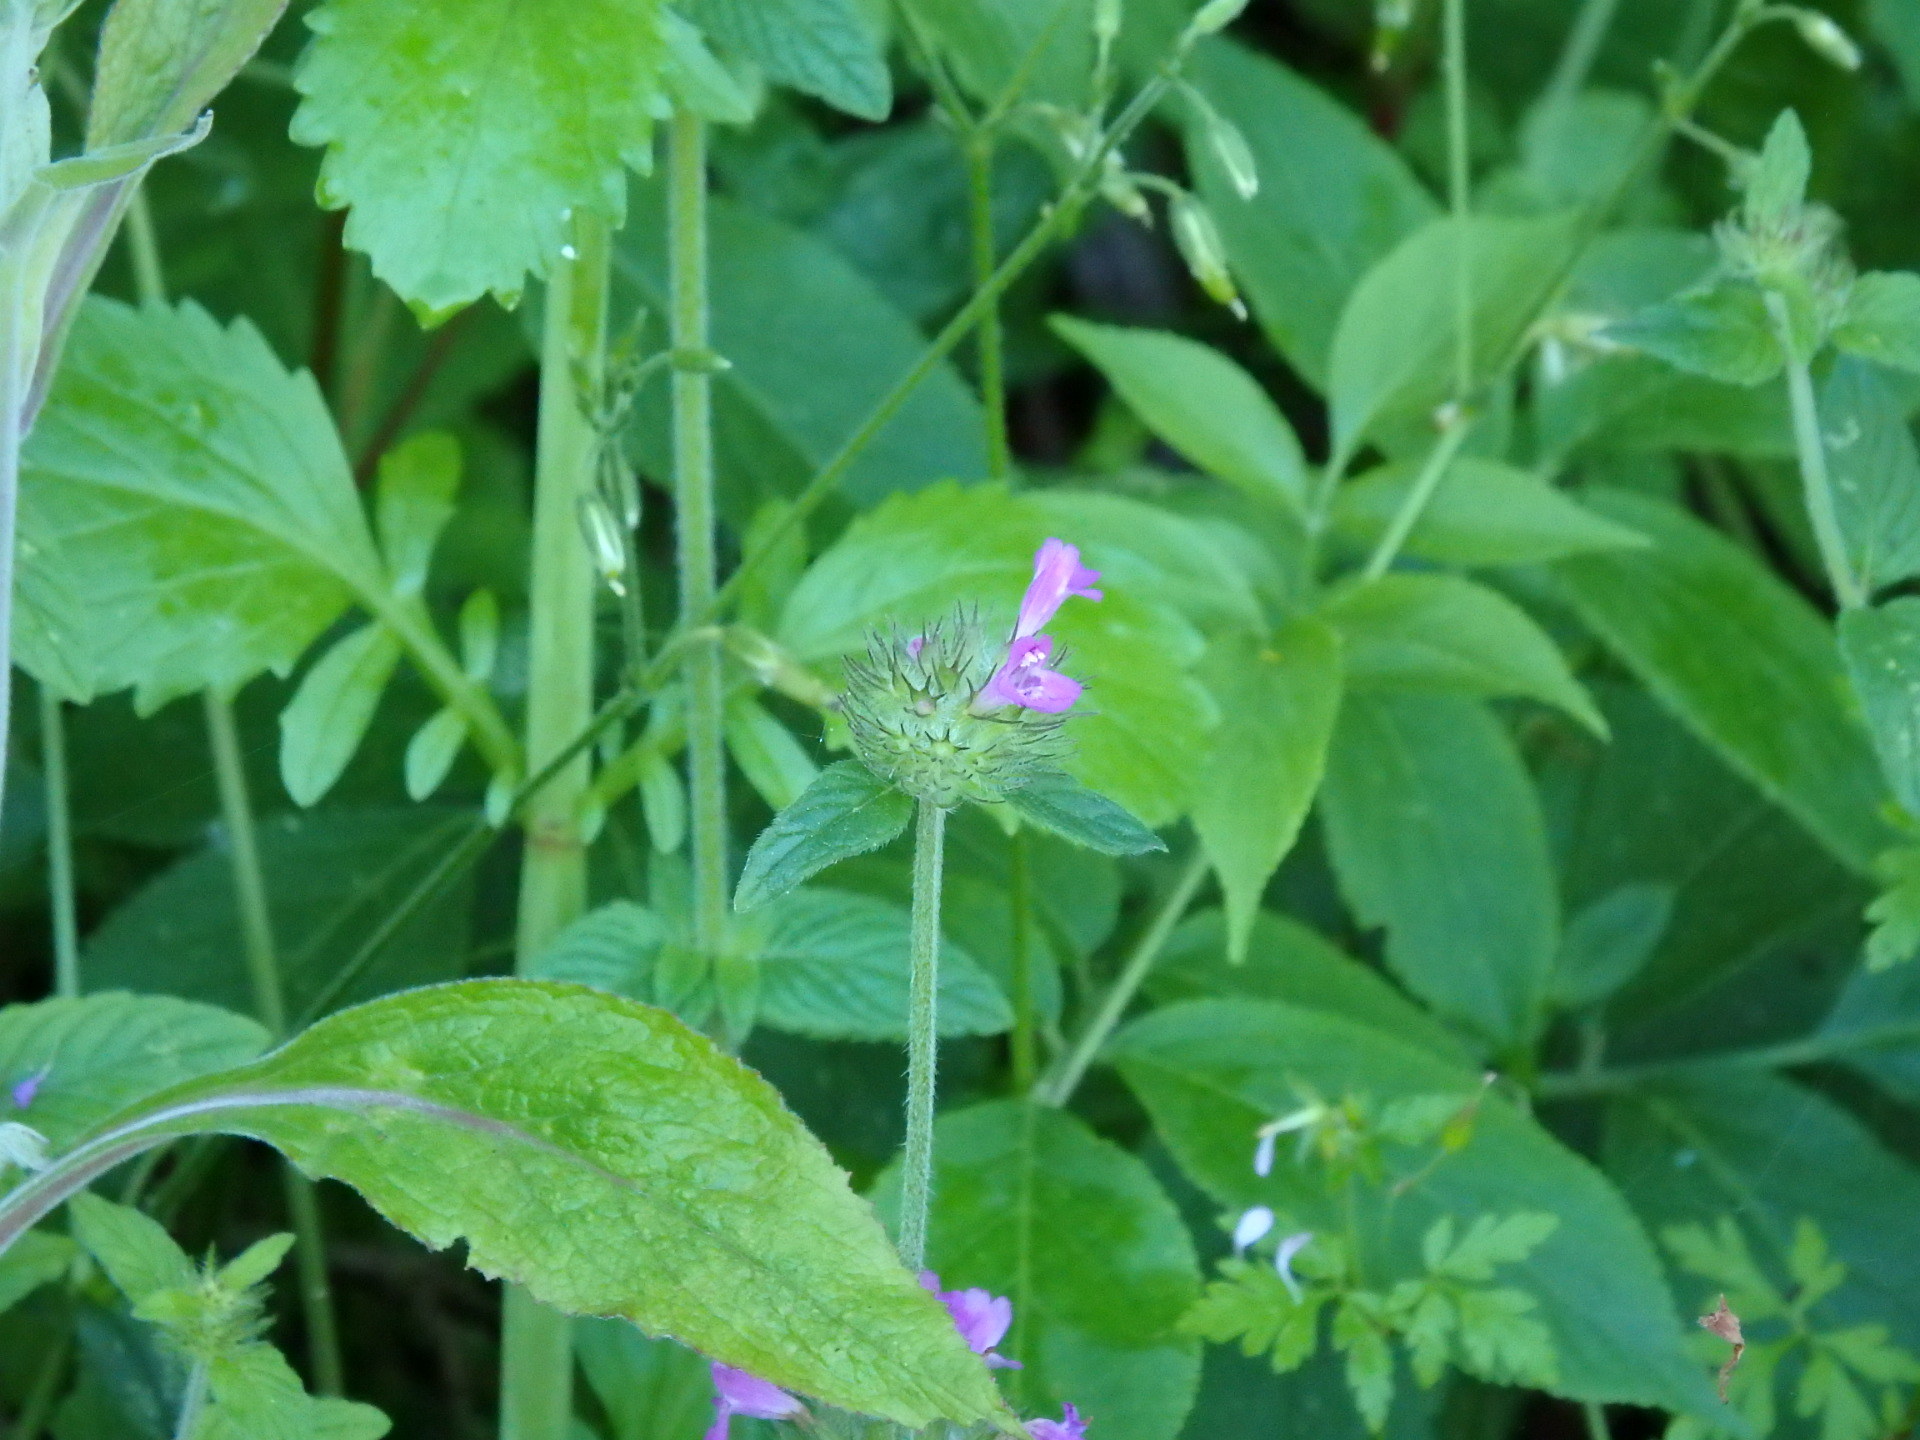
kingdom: Plantae
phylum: Tracheophyta
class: Magnoliopsida
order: Lamiales
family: Lamiaceae
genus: Clinopodium
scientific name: Clinopodium vulgare
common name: Wild basil
